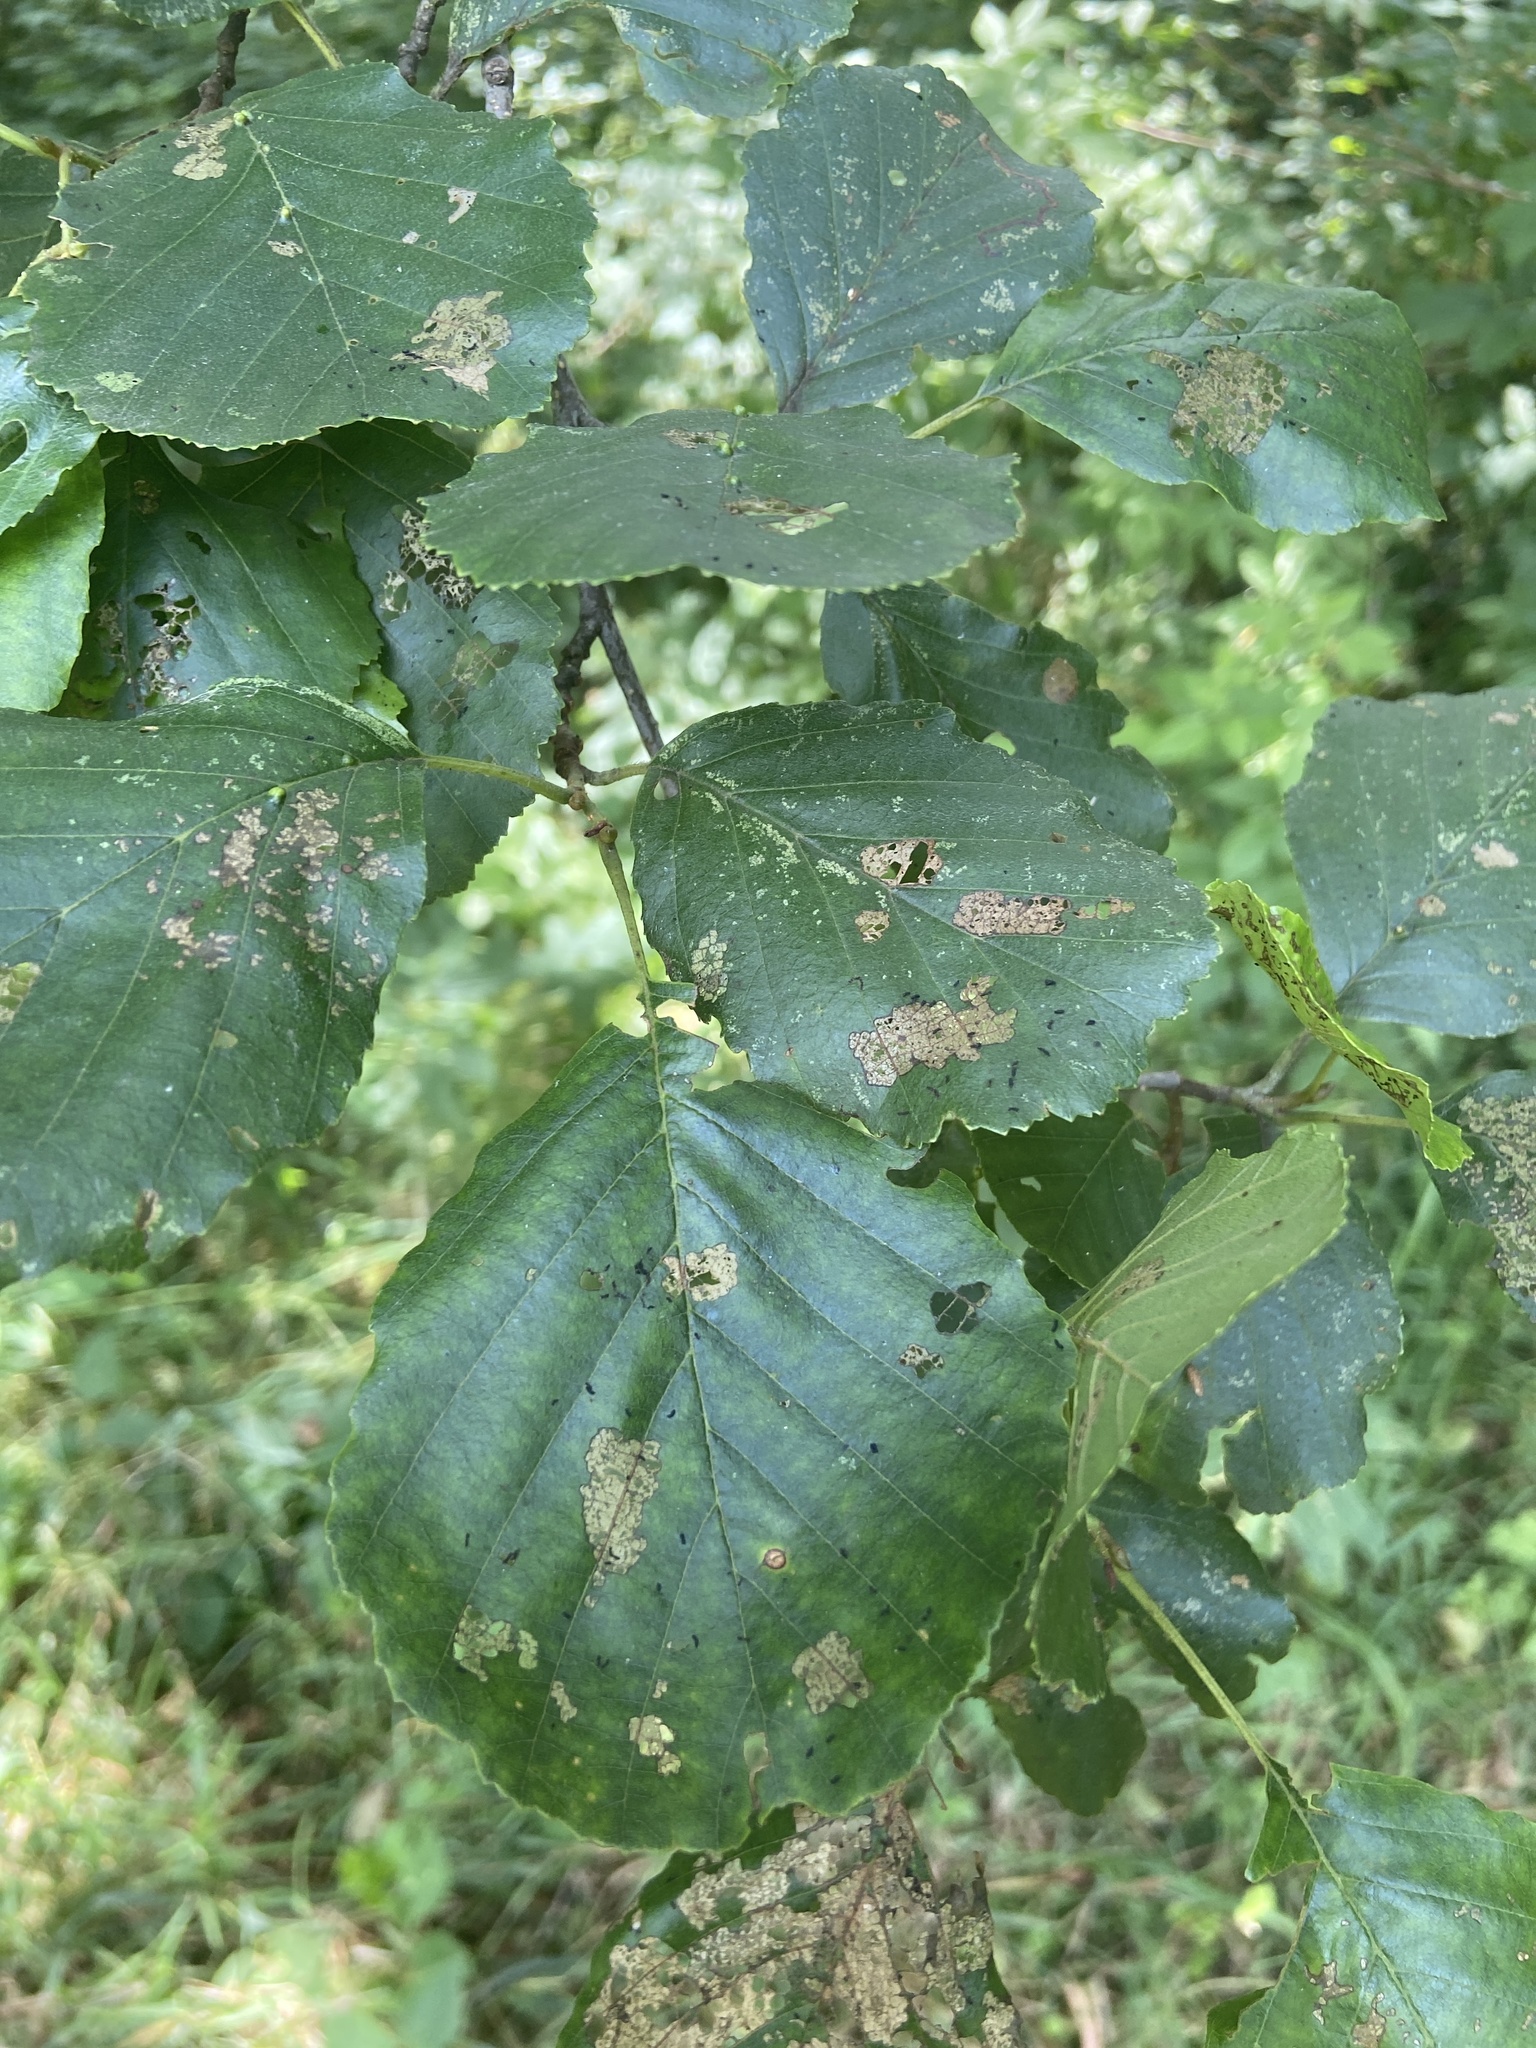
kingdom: Animalia
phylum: Arthropoda
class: Insecta
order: Coleoptera
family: Chrysomelidae
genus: Agelastica
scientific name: Agelastica alni
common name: Alder leaf beetle
